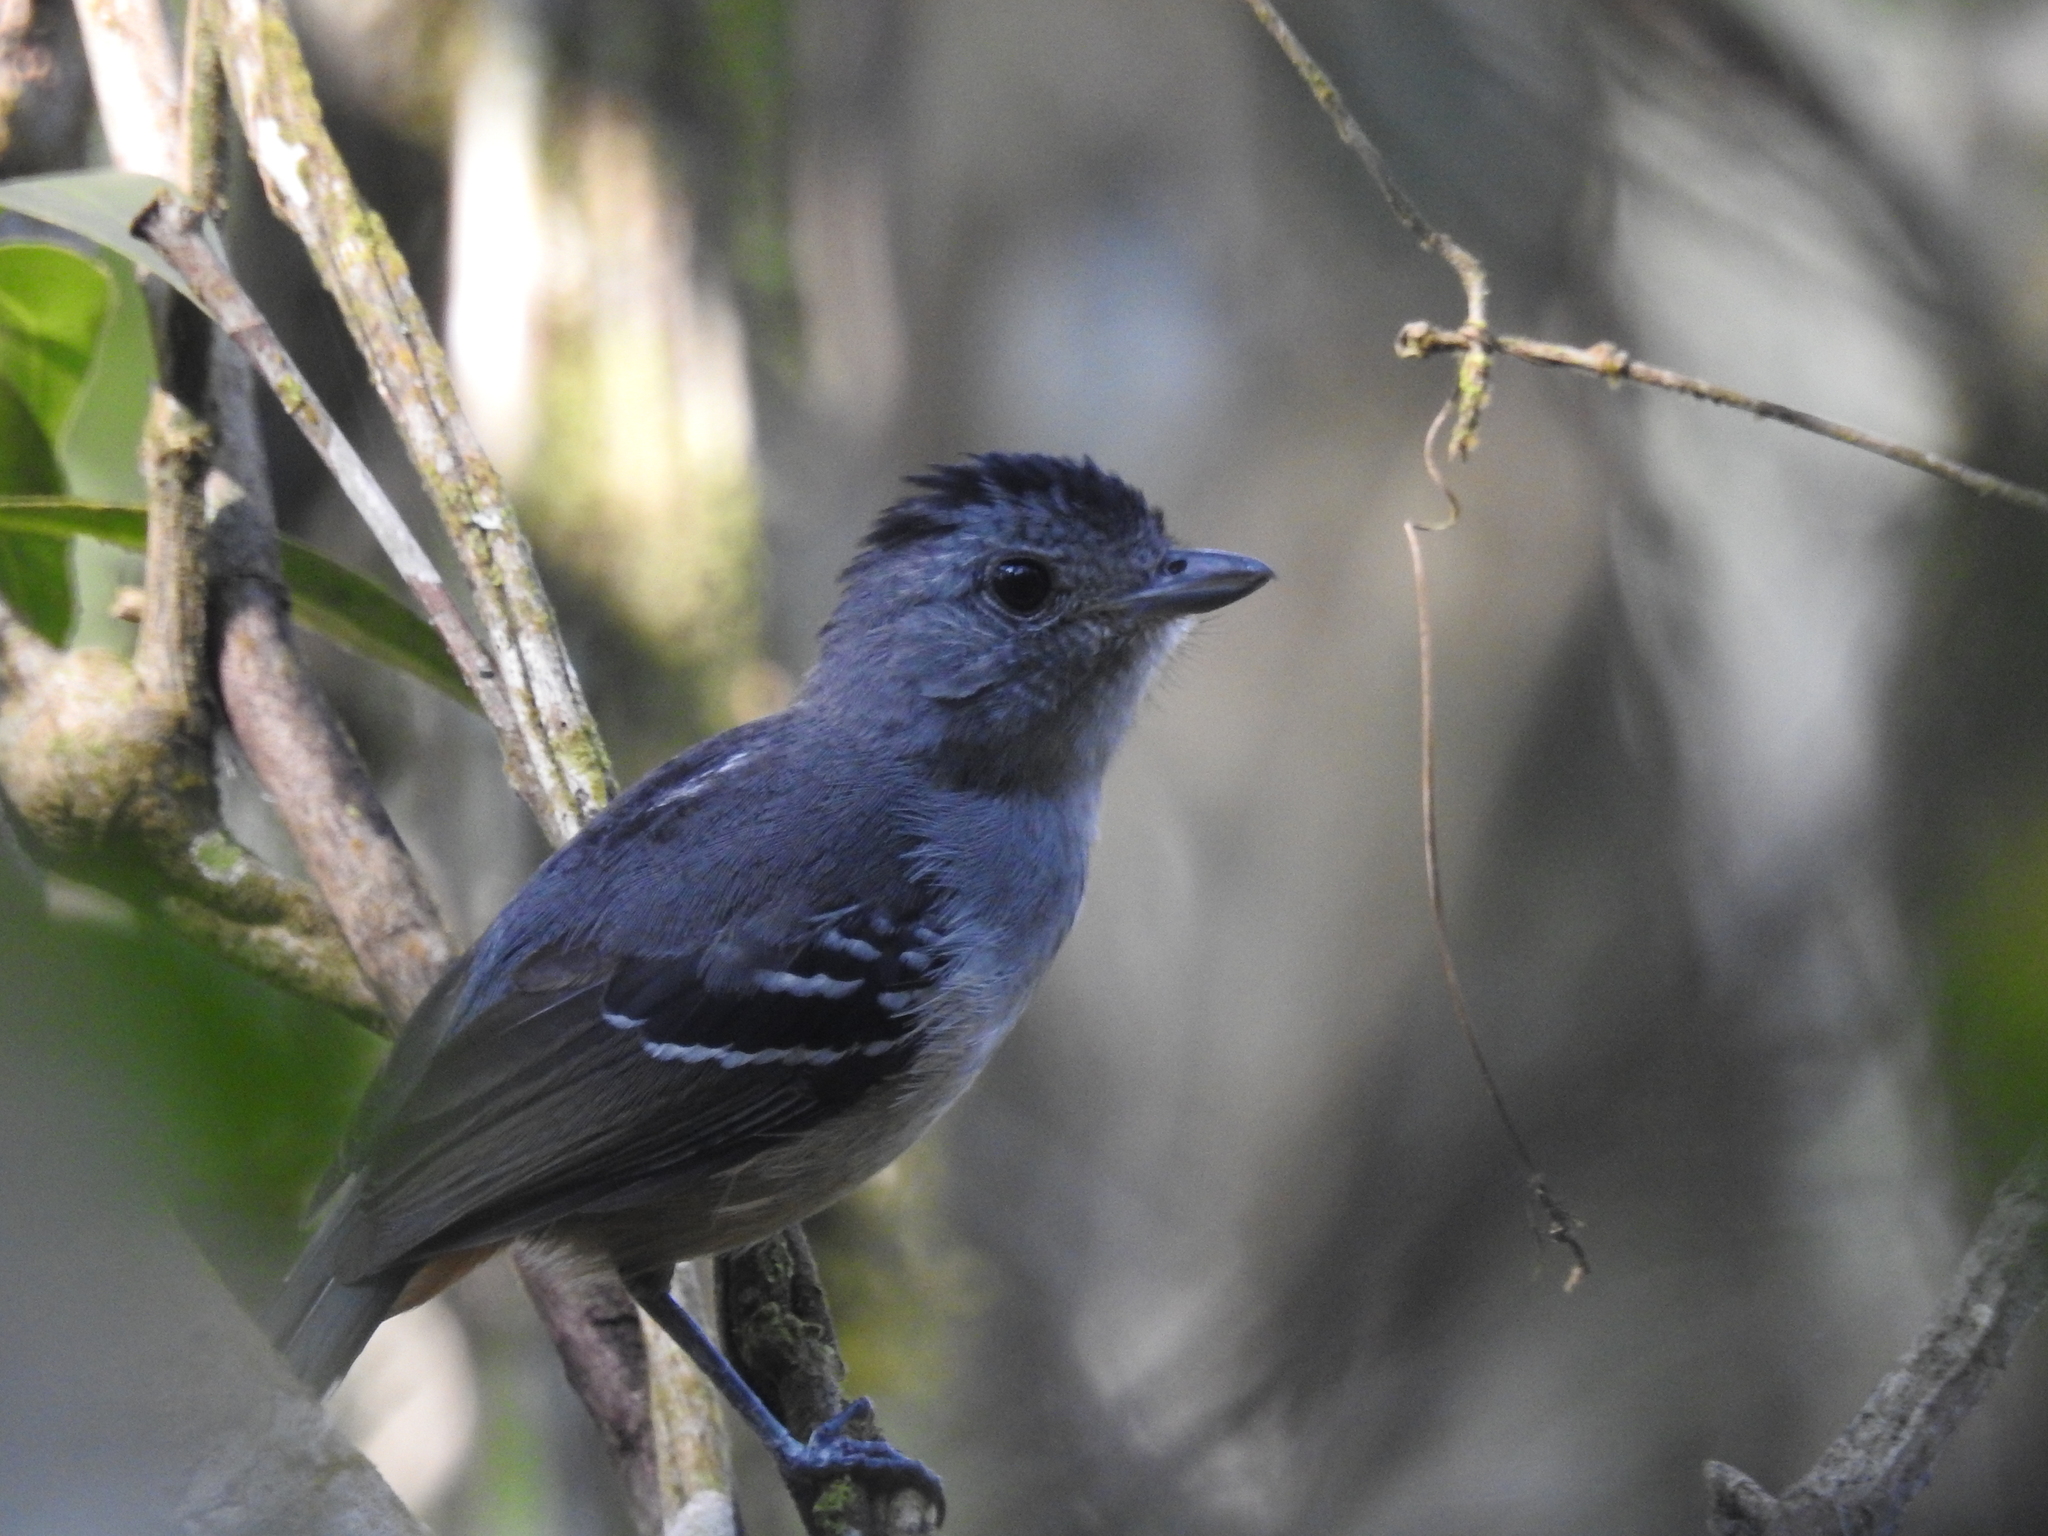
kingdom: Animalia
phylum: Chordata
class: Aves
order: Passeriformes
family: Thamnophilidae
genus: Thamnophilus
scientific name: Thamnophilus caerulescens
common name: Variable antshrike
